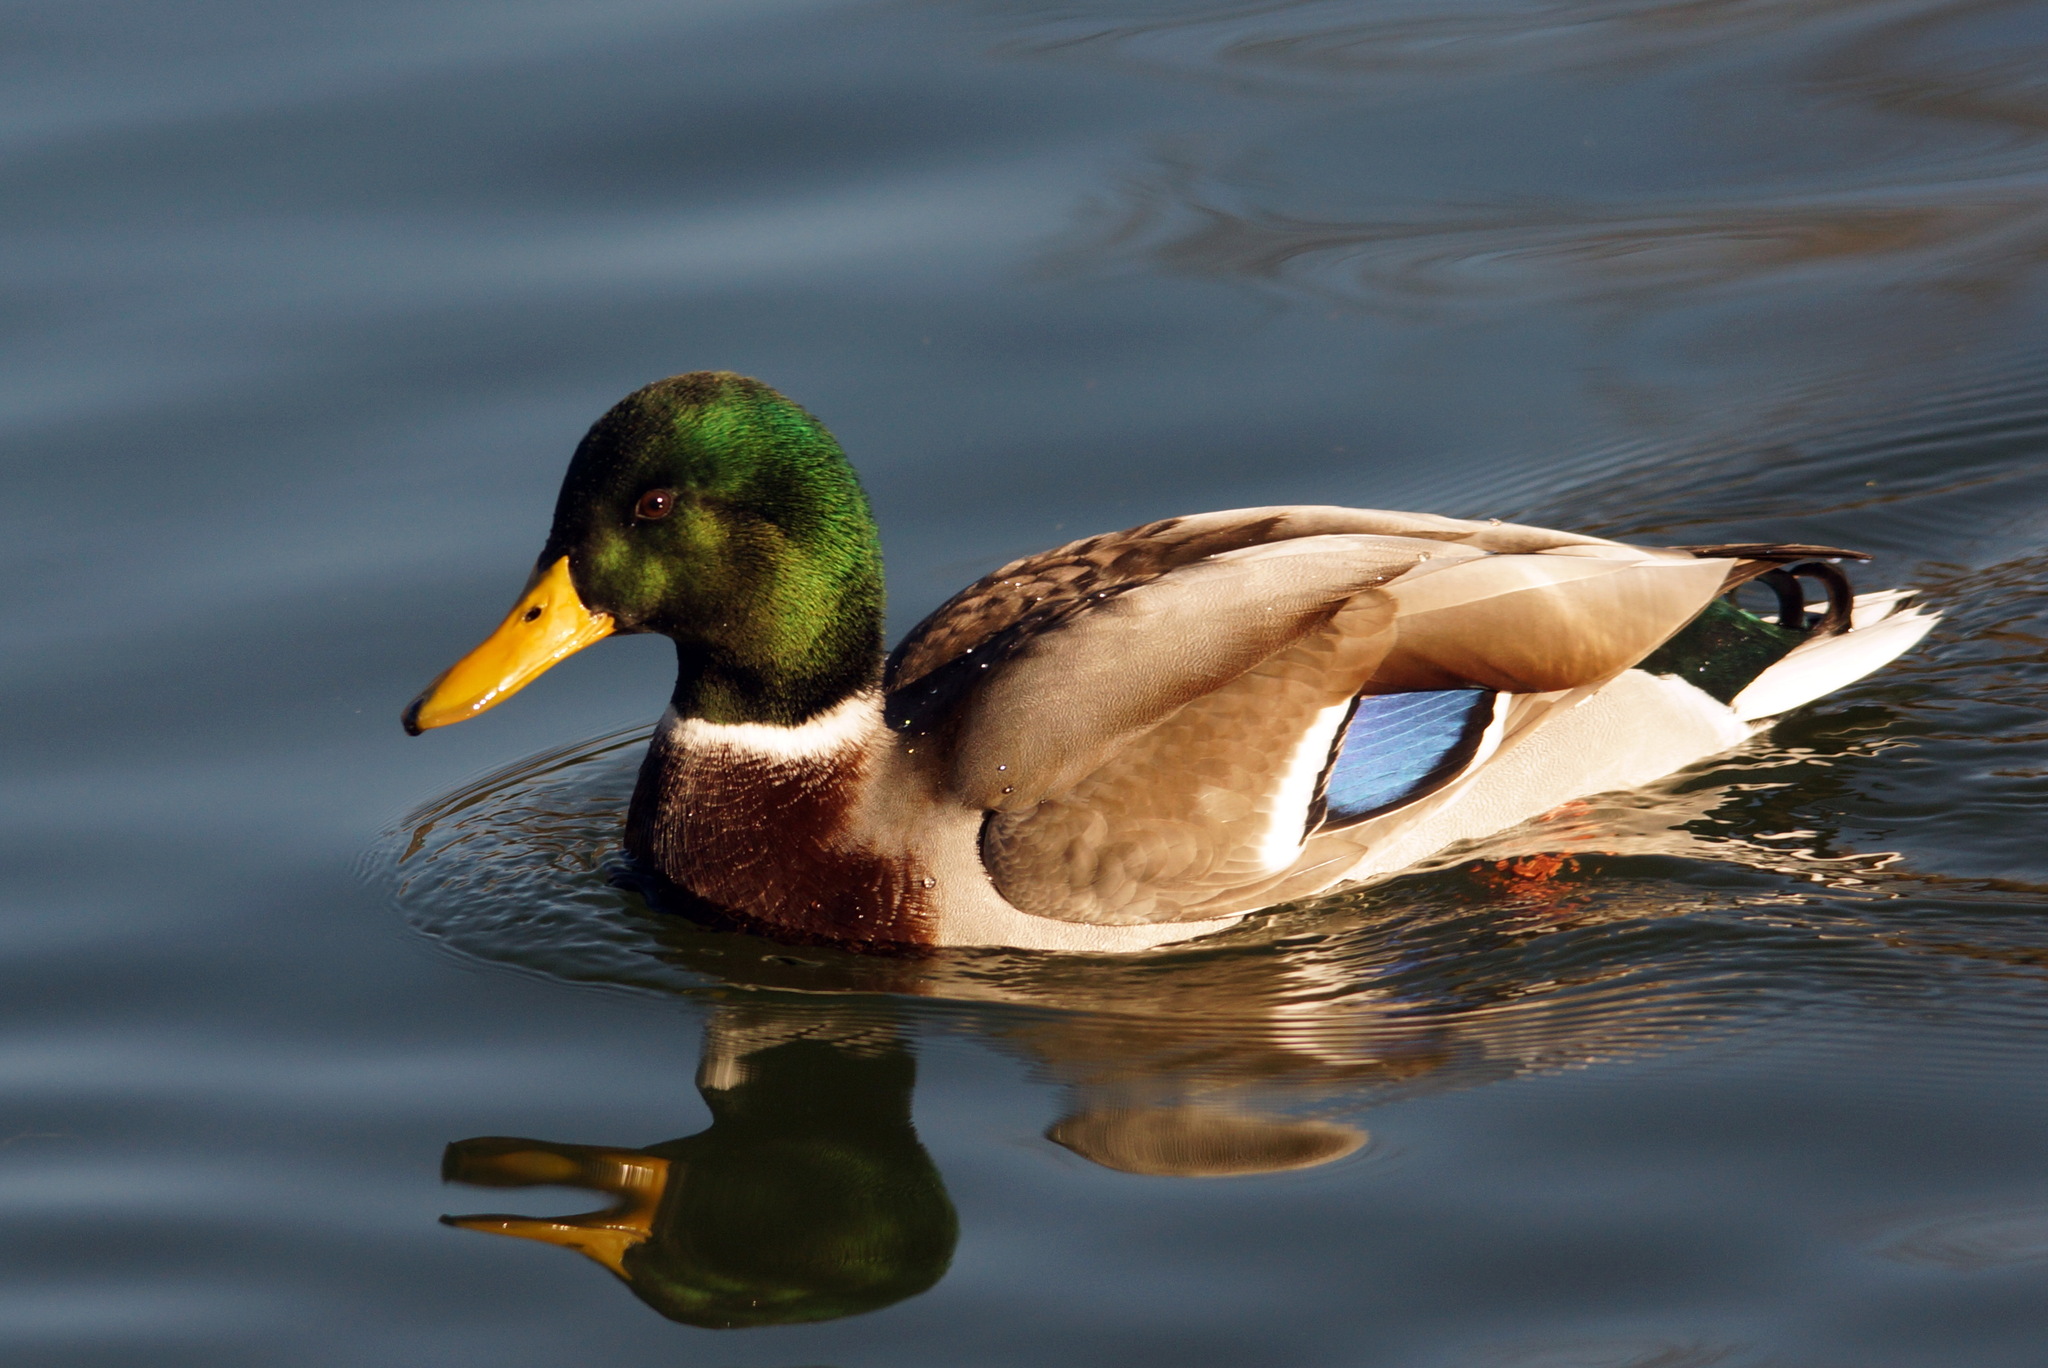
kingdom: Animalia
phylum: Chordata
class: Aves
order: Anseriformes
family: Anatidae
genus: Anas
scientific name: Anas platyrhynchos
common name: Mallard
